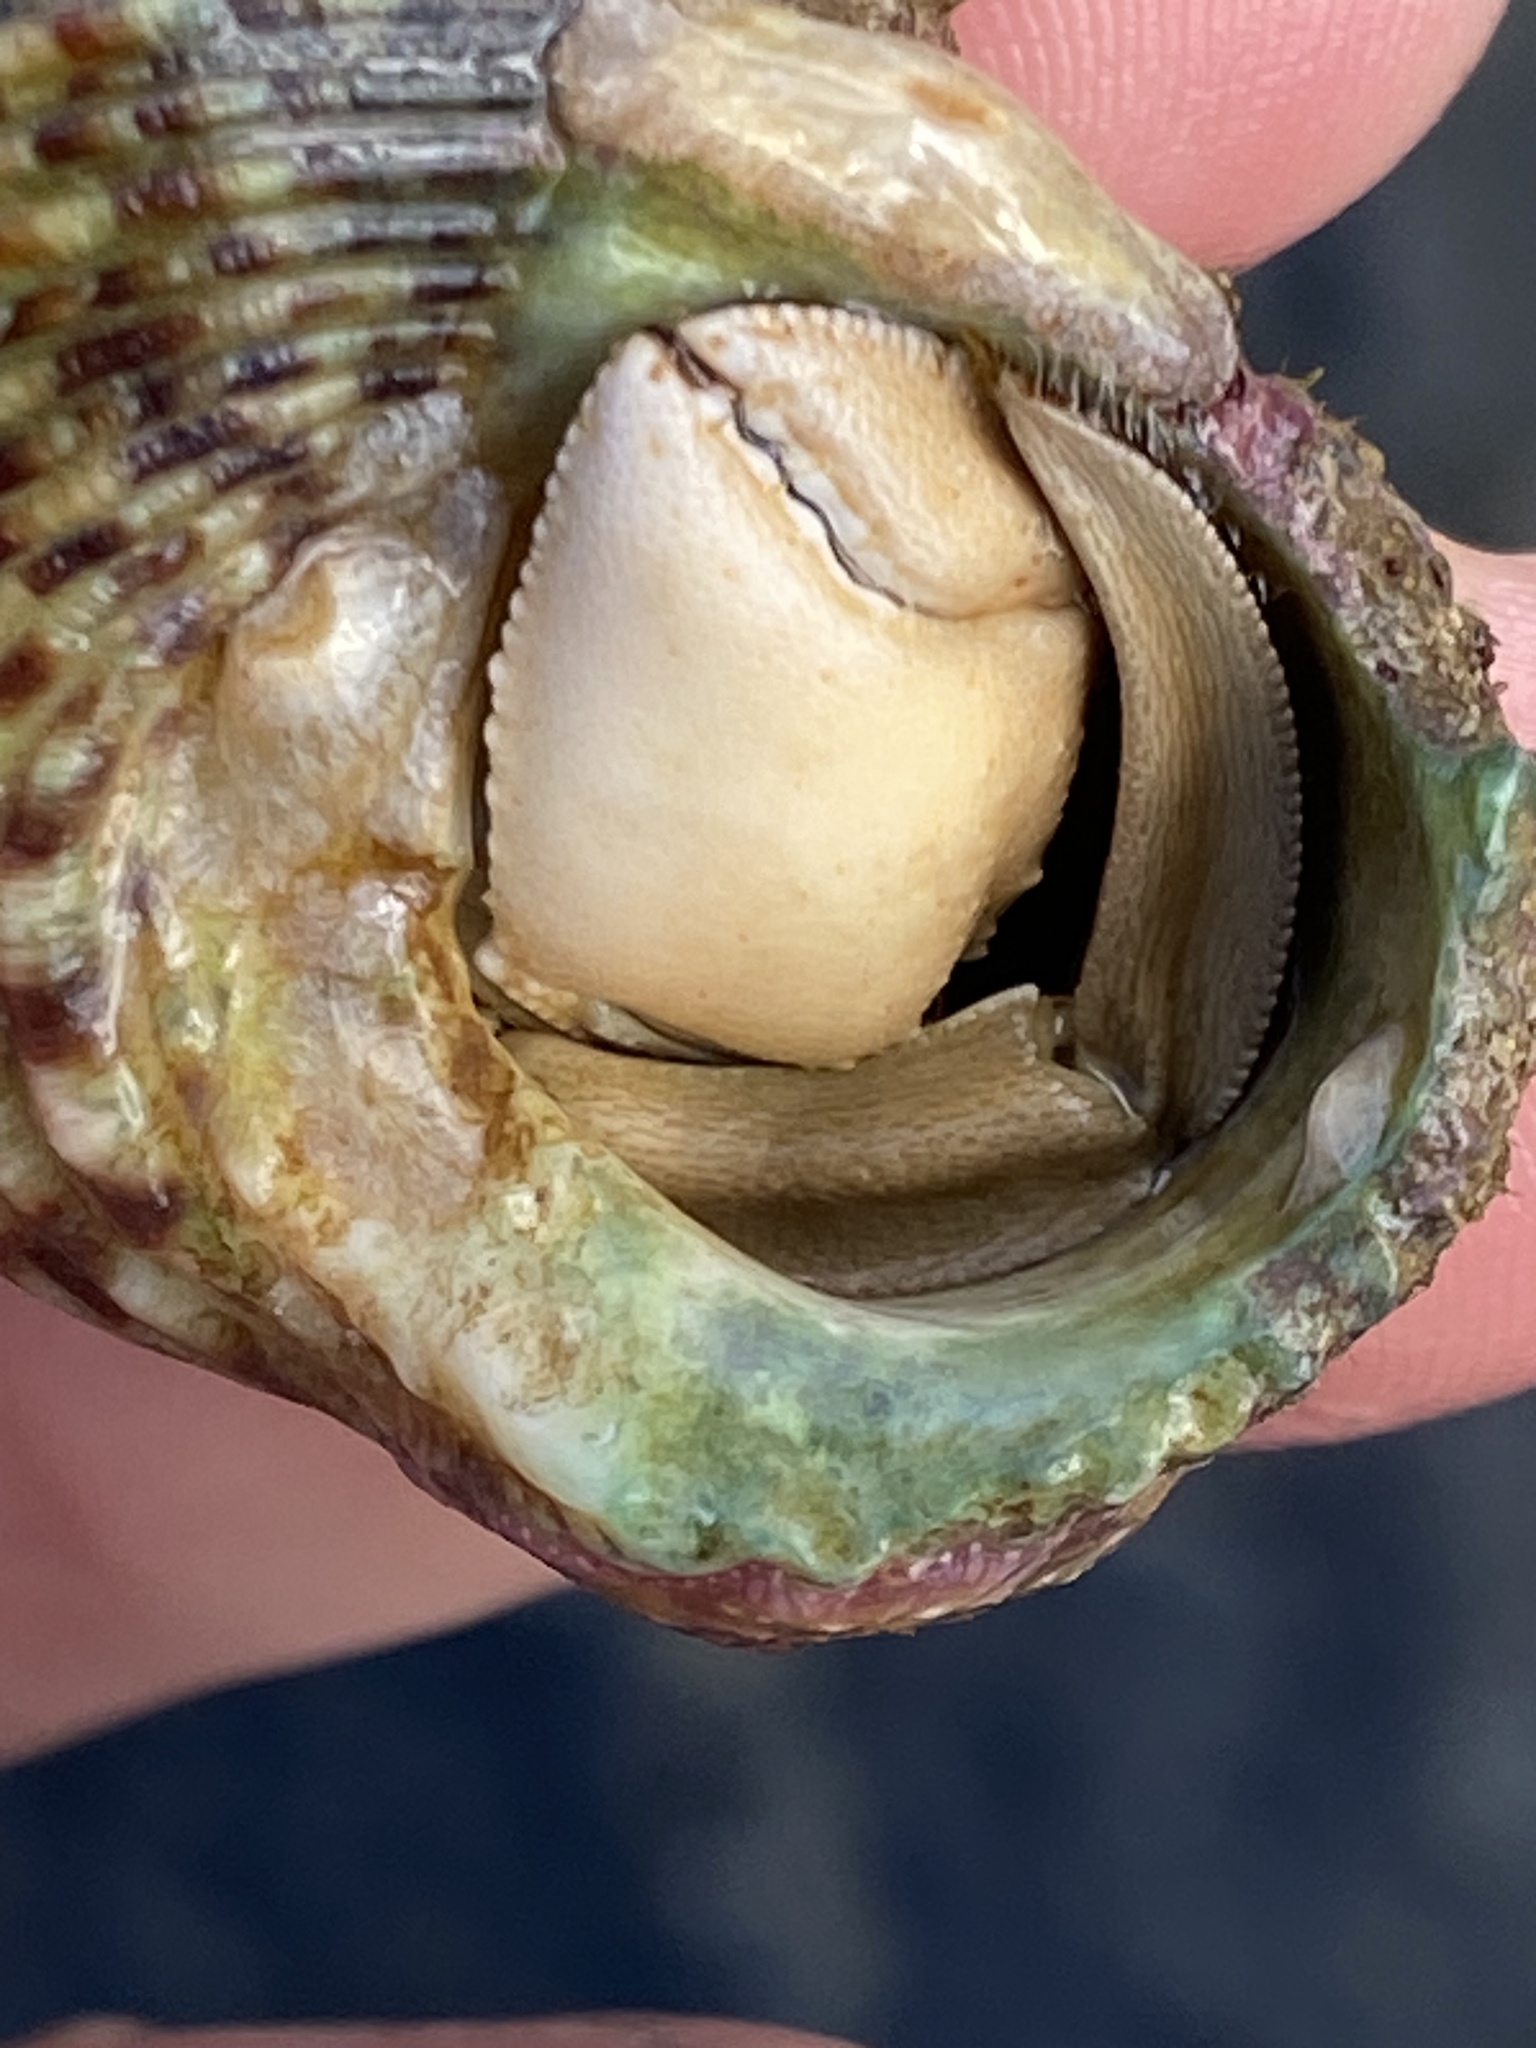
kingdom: Animalia
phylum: Arthropoda
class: Malacostraca
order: Decapoda
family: Diogenidae
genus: Dardanus
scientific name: Dardanus deformis
